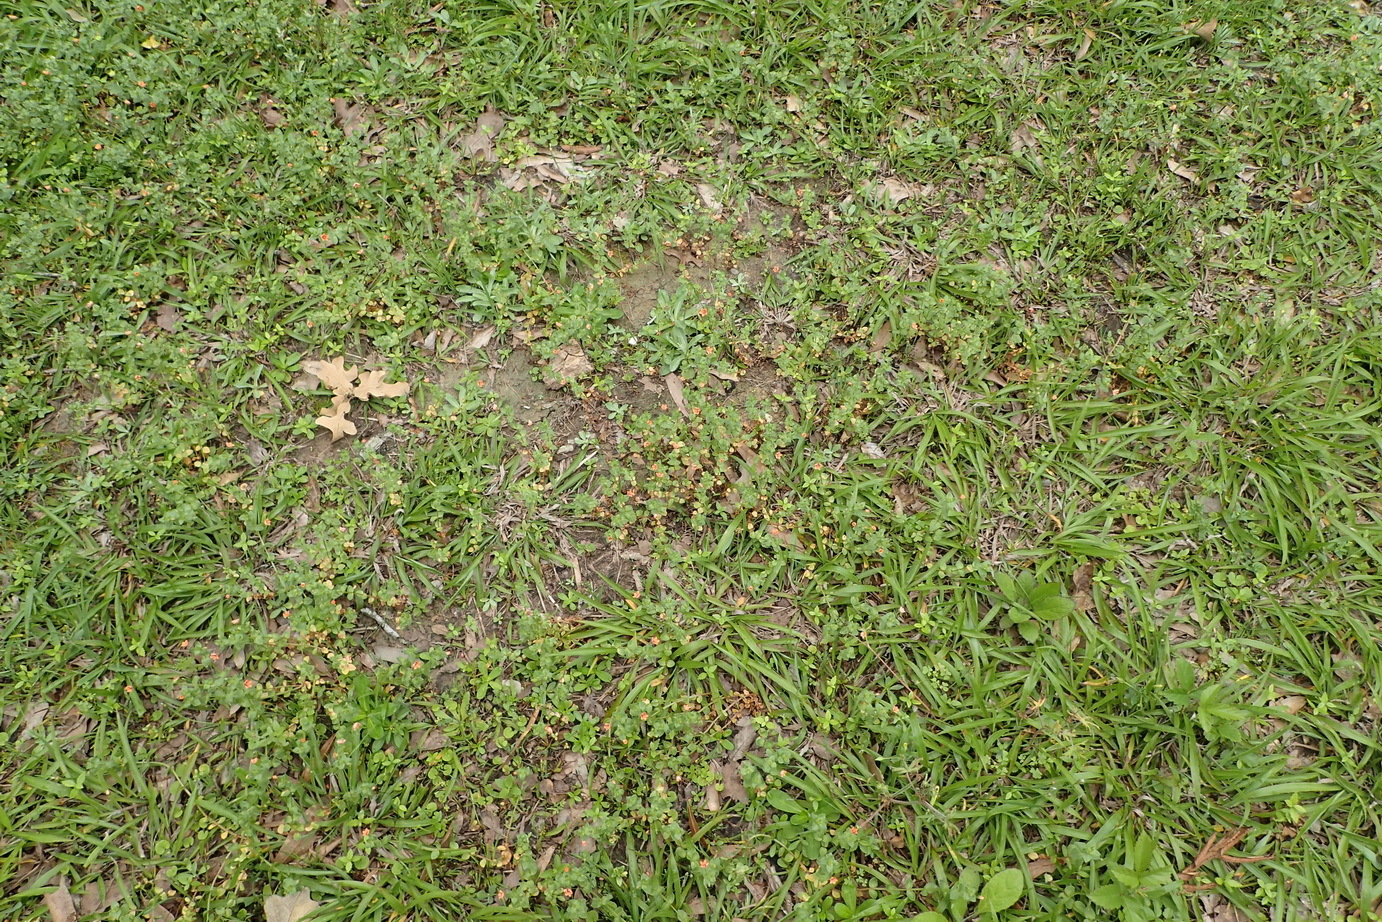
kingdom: Plantae
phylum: Tracheophyta
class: Magnoliopsida
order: Ericales
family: Primulaceae
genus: Lysimachia
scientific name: Lysimachia arvensis
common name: Scarlet pimpernel
